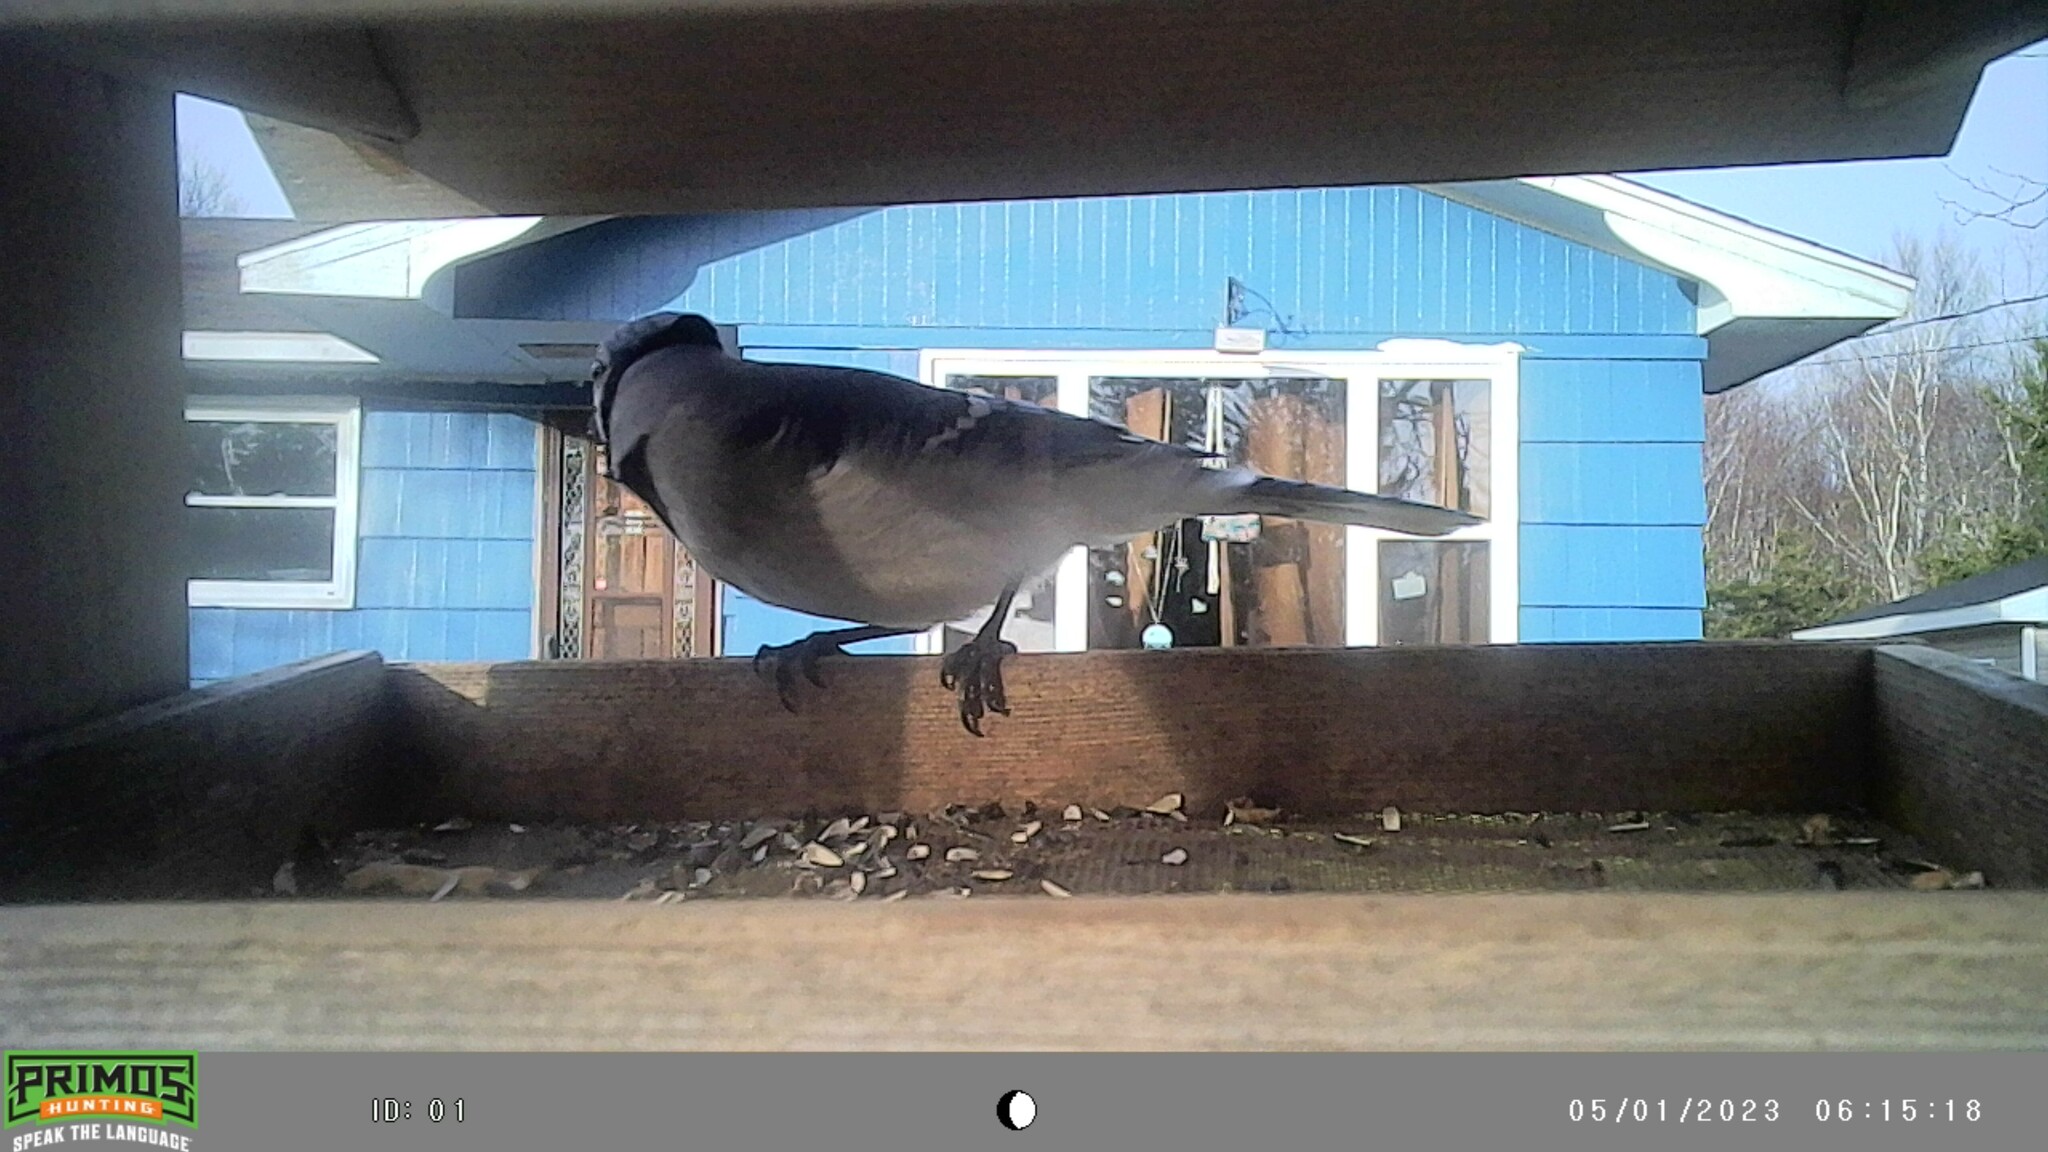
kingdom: Animalia
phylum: Chordata
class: Aves
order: Passeriformes
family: Corvidae
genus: Cyanocitta
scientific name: Cyanocitta cristata
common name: Blue jay
